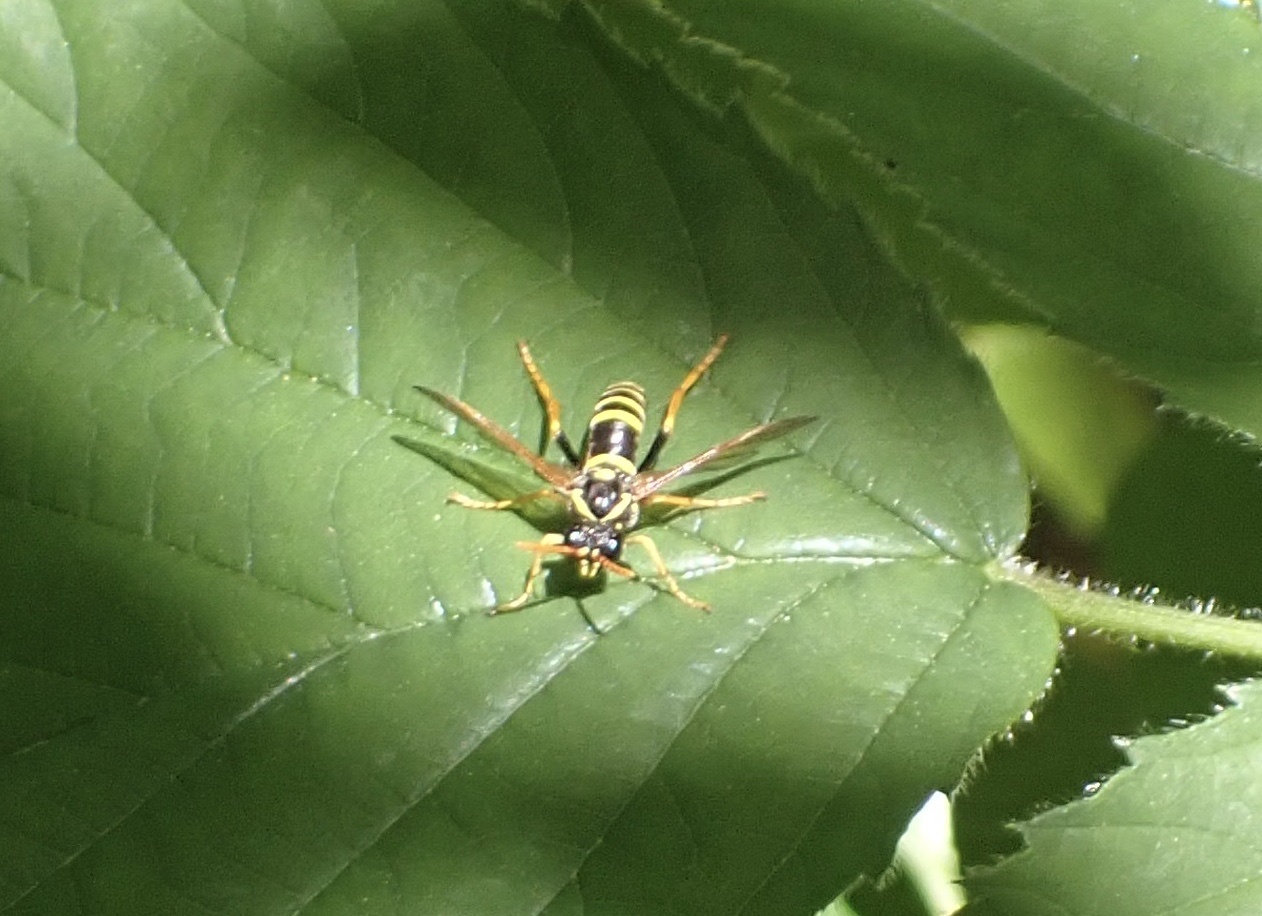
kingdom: Animalia
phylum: Arthropoda
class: Insecta
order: Hymenoptera
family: Tenthredinidae
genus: Tenthredo
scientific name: Tenthredo scrophulariae
